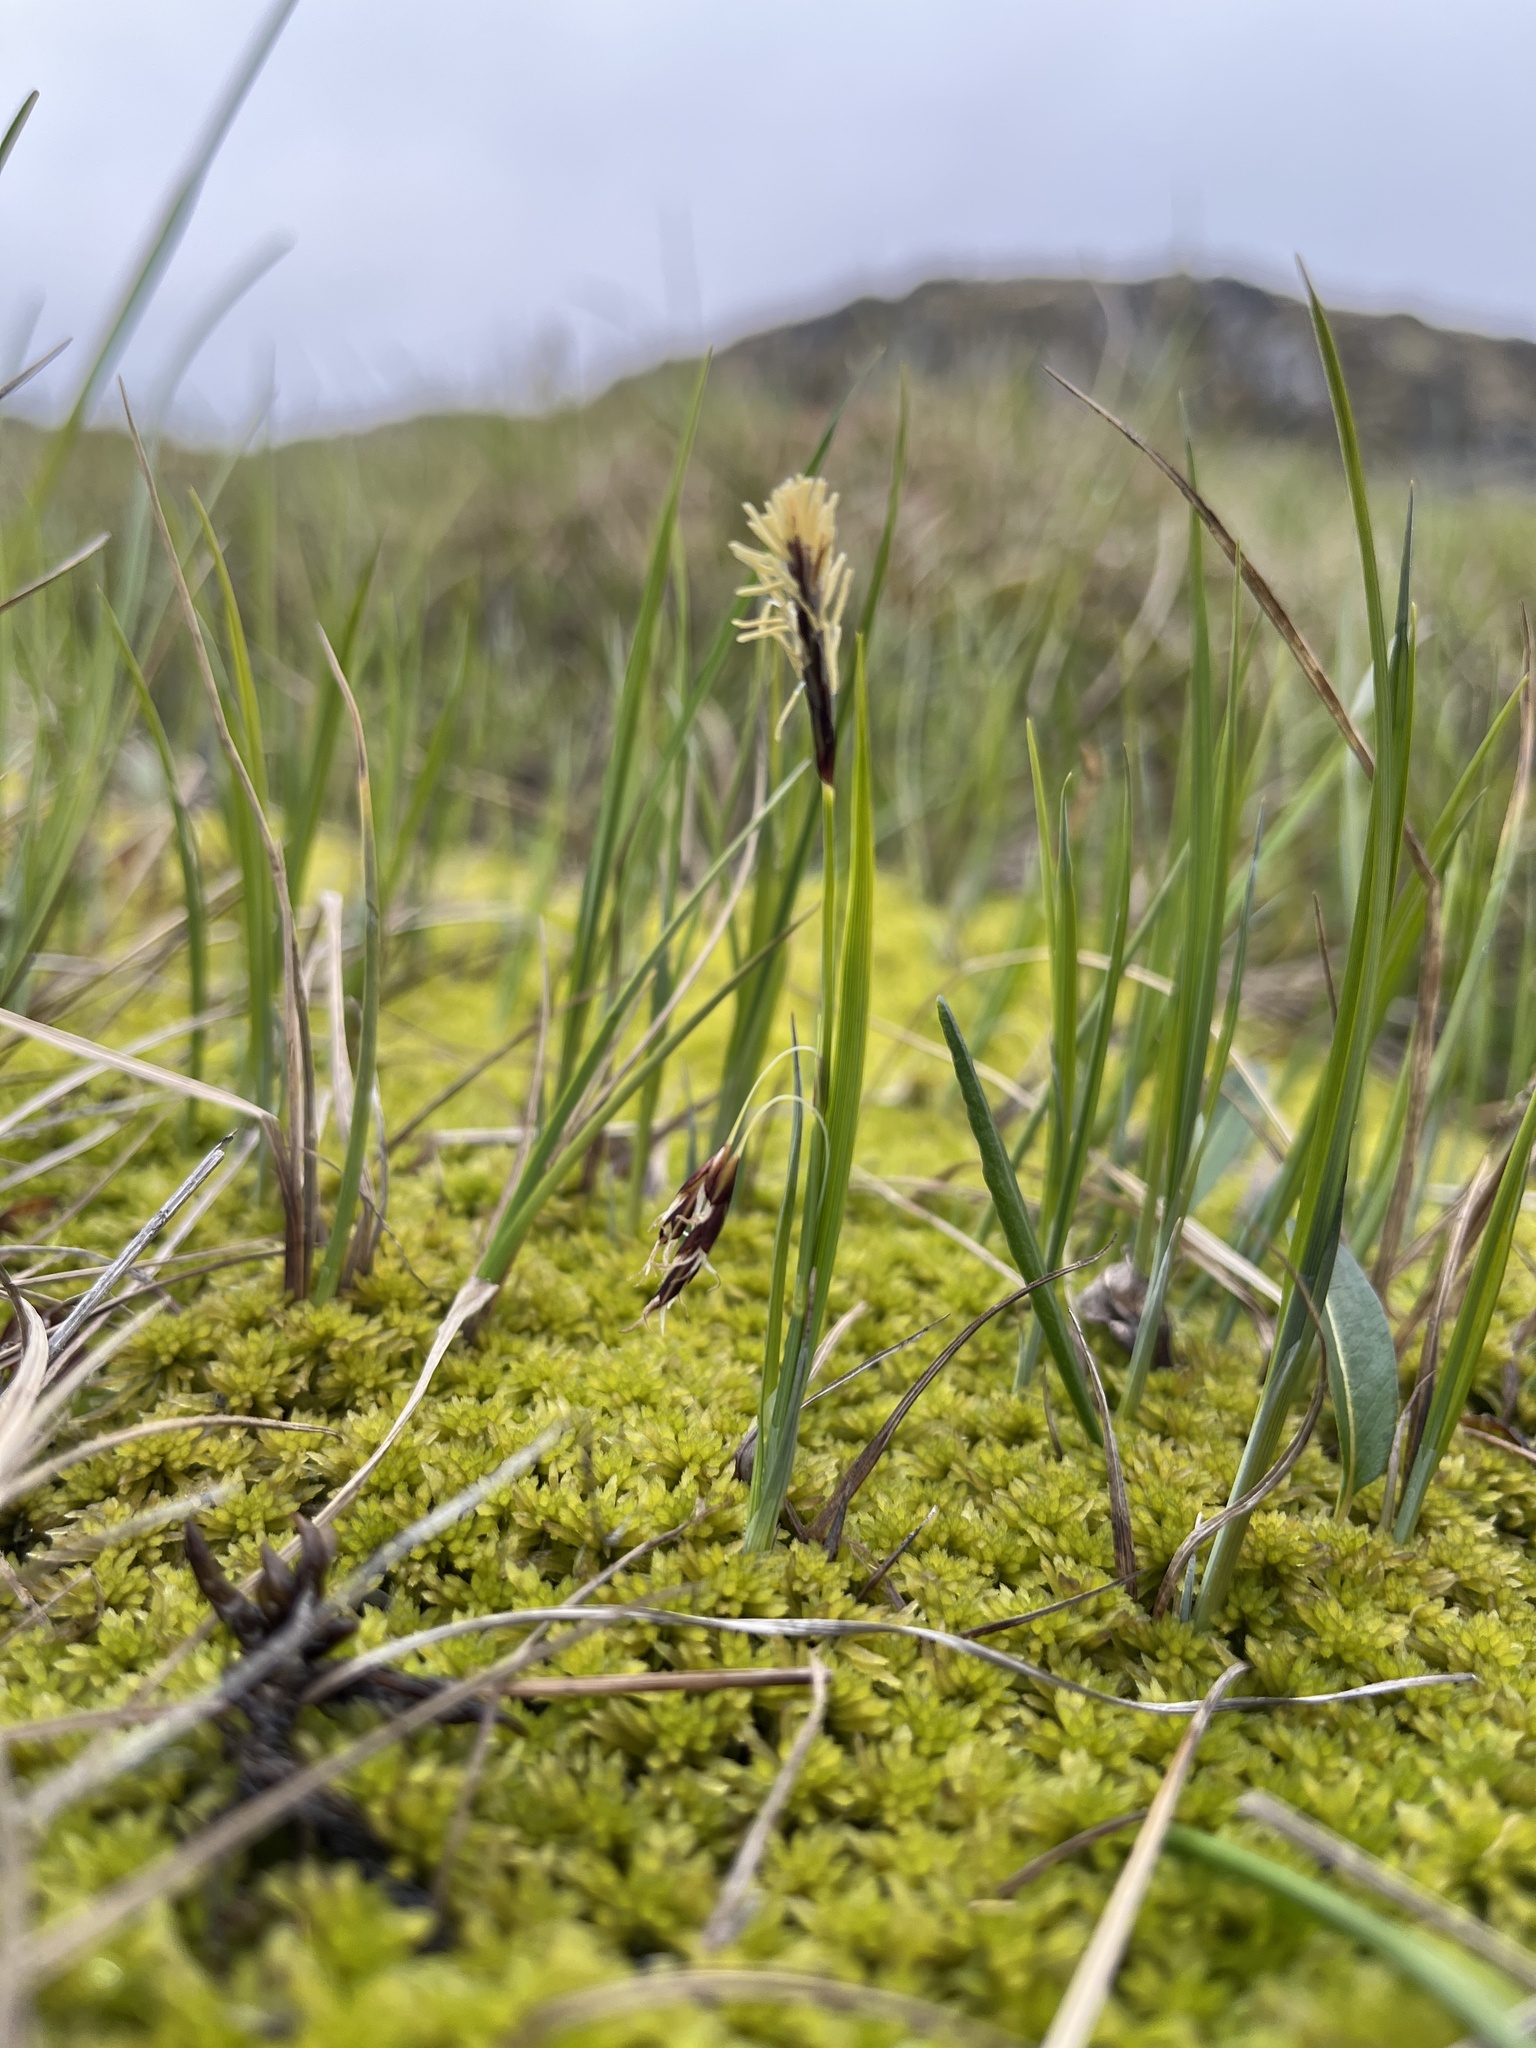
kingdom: Plantae
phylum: Tracheophyta
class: Liliopsida
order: Poales
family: Cyperaceae
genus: Carex
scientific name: Carex rariflora
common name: Loose-flowered alpine sedge
